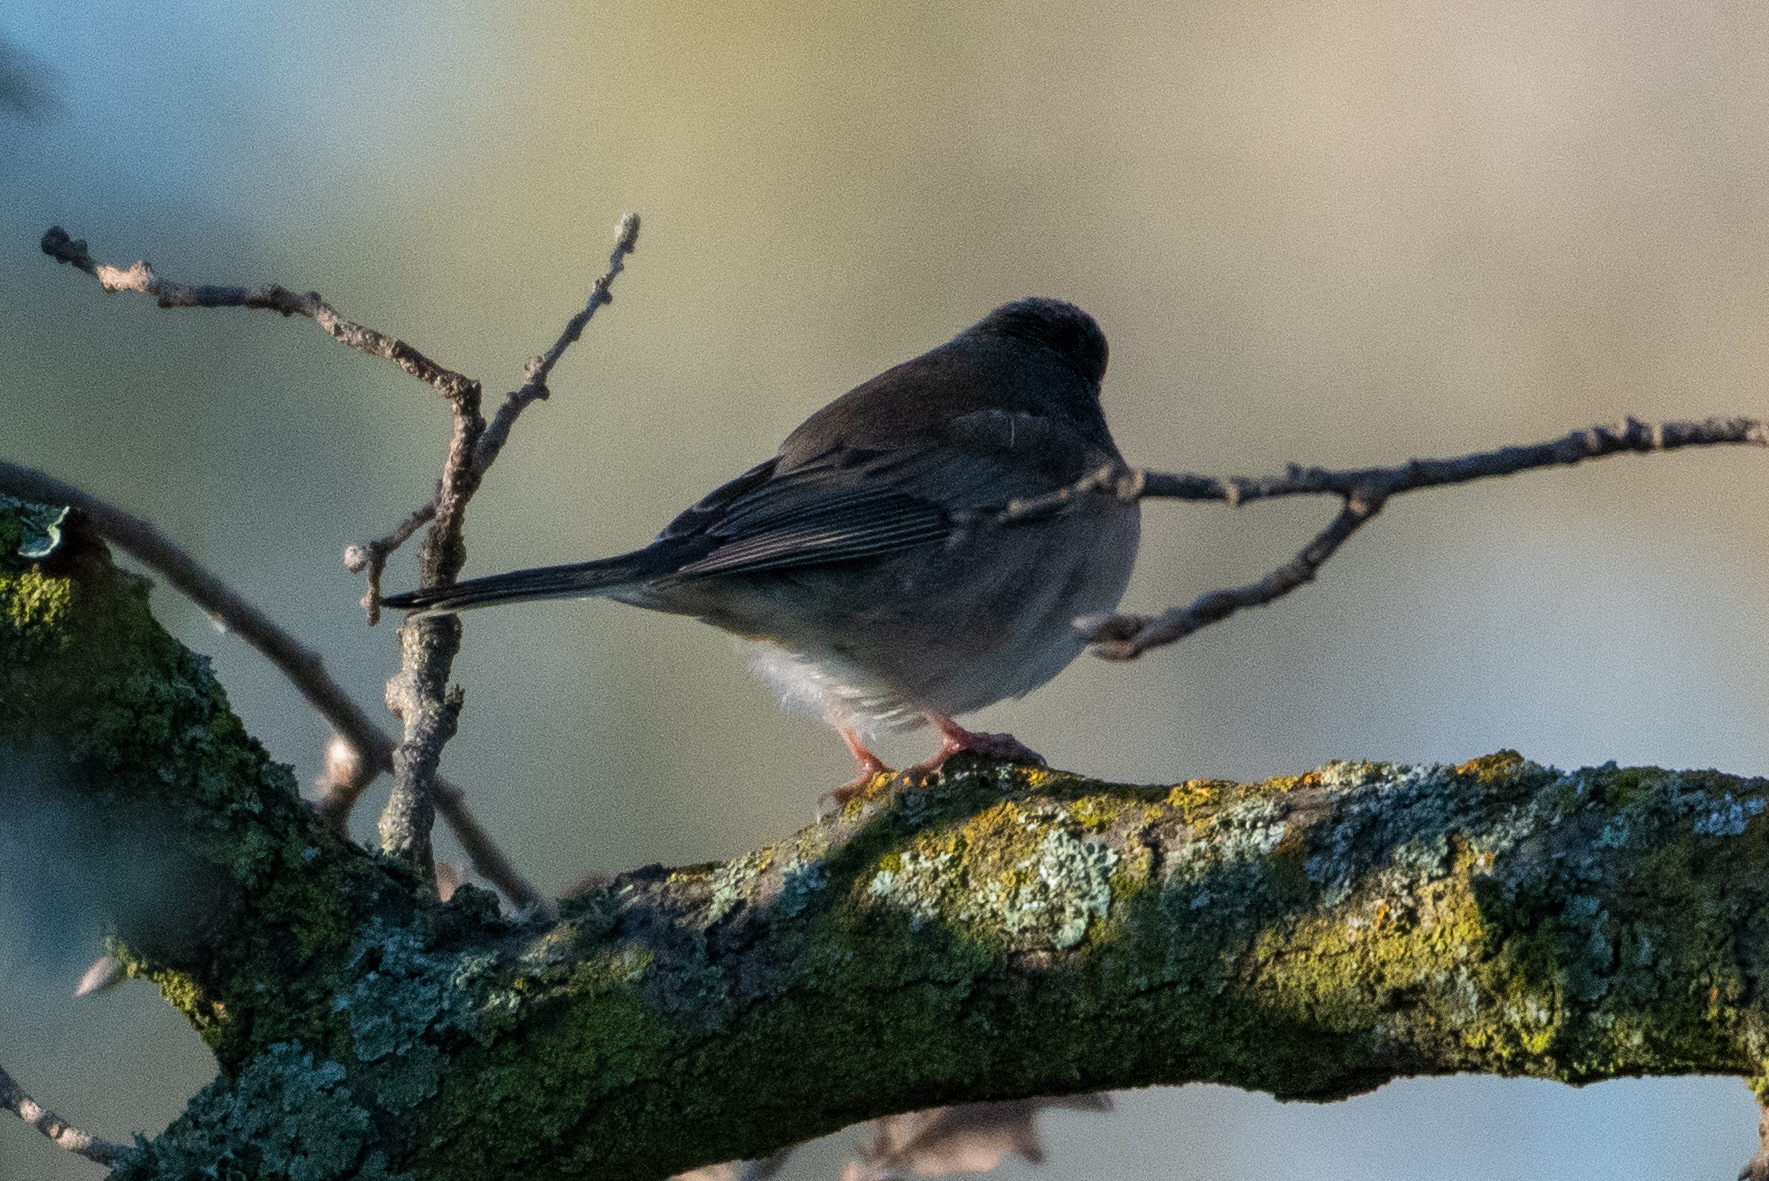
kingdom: Animalia
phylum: Chordata
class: Aves
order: Passeriformes
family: Passerellidae
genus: Junco
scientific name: Junco hyemalis
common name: Dark-eyed junco
